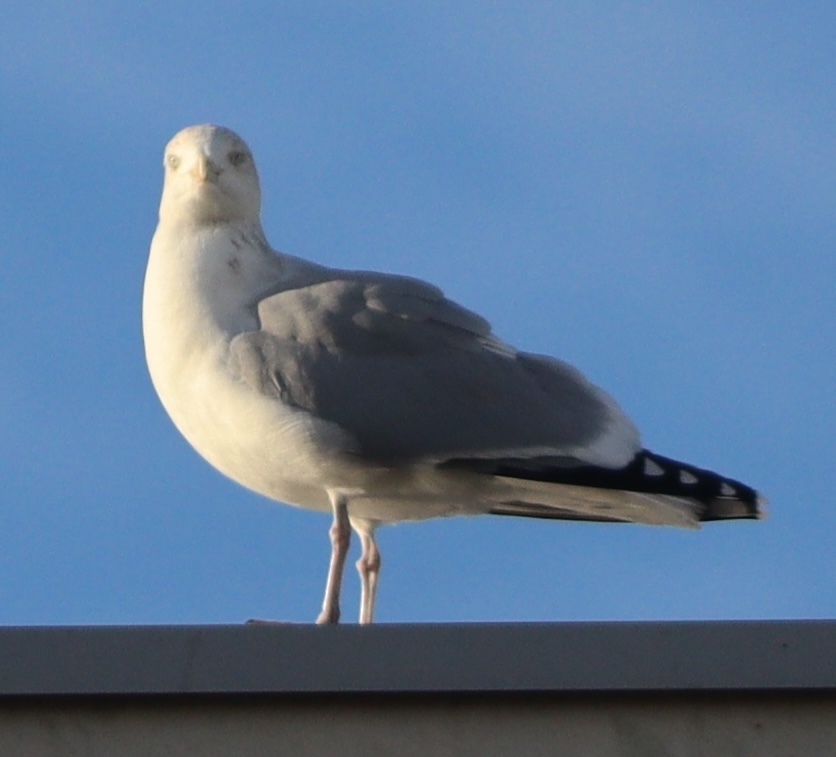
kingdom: Animalia
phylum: Chordata
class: Aves
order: Charadriiformes
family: Laridae
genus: Larus
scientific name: Larus argentatus
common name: Herring gull
